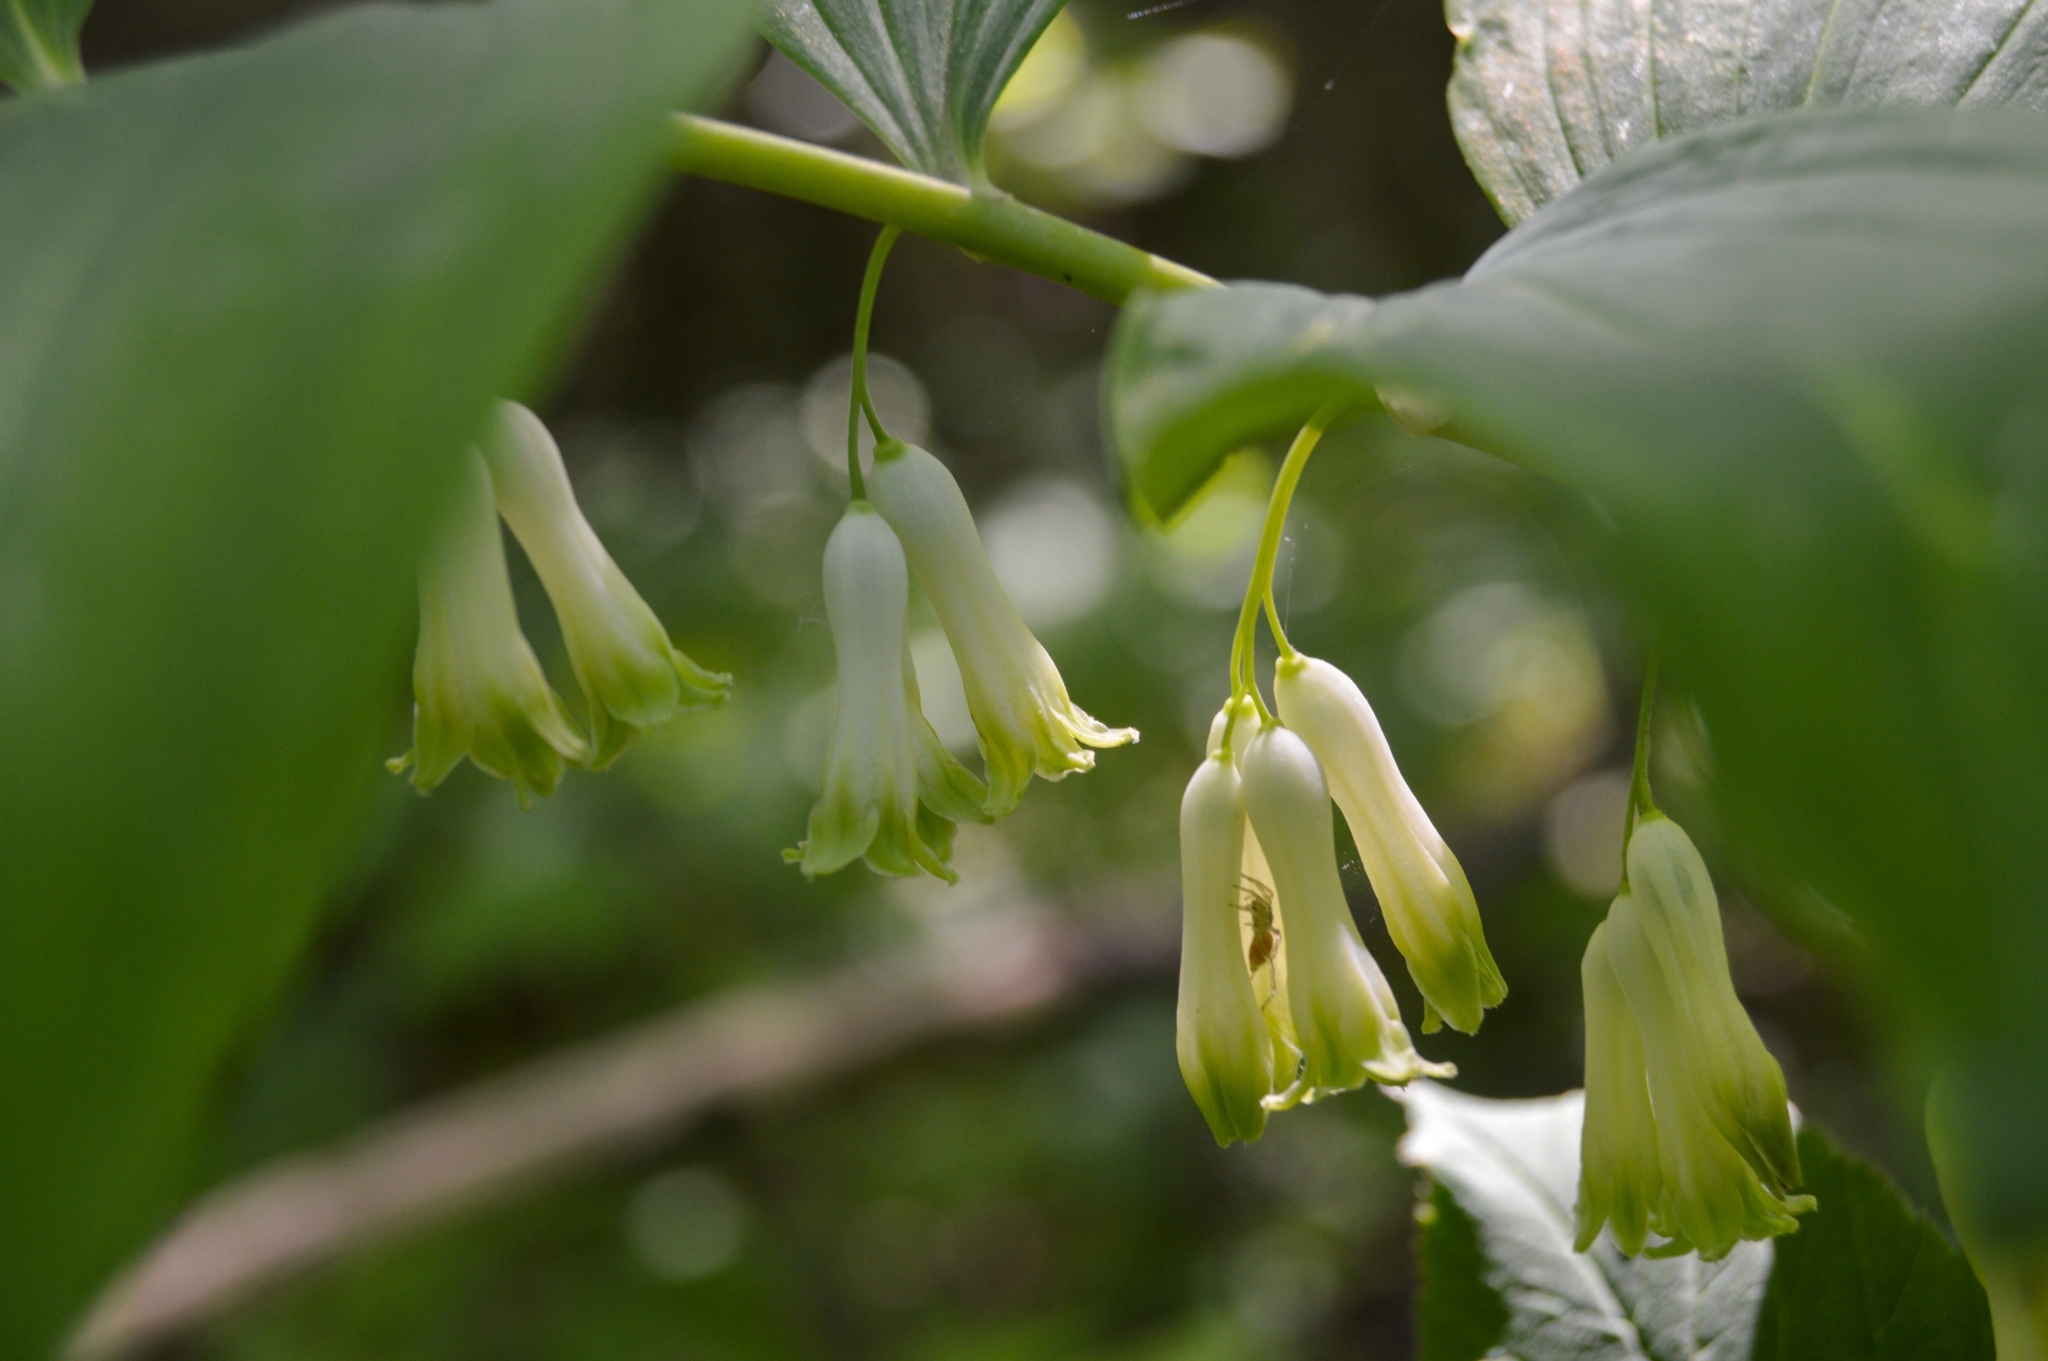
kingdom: Plantae
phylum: Tracheophyta
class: Liliopsida
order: Asparagales
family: Asparagaceae
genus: Polygonatum
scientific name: Polygonatum multiflorum
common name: Solomon's-seal
